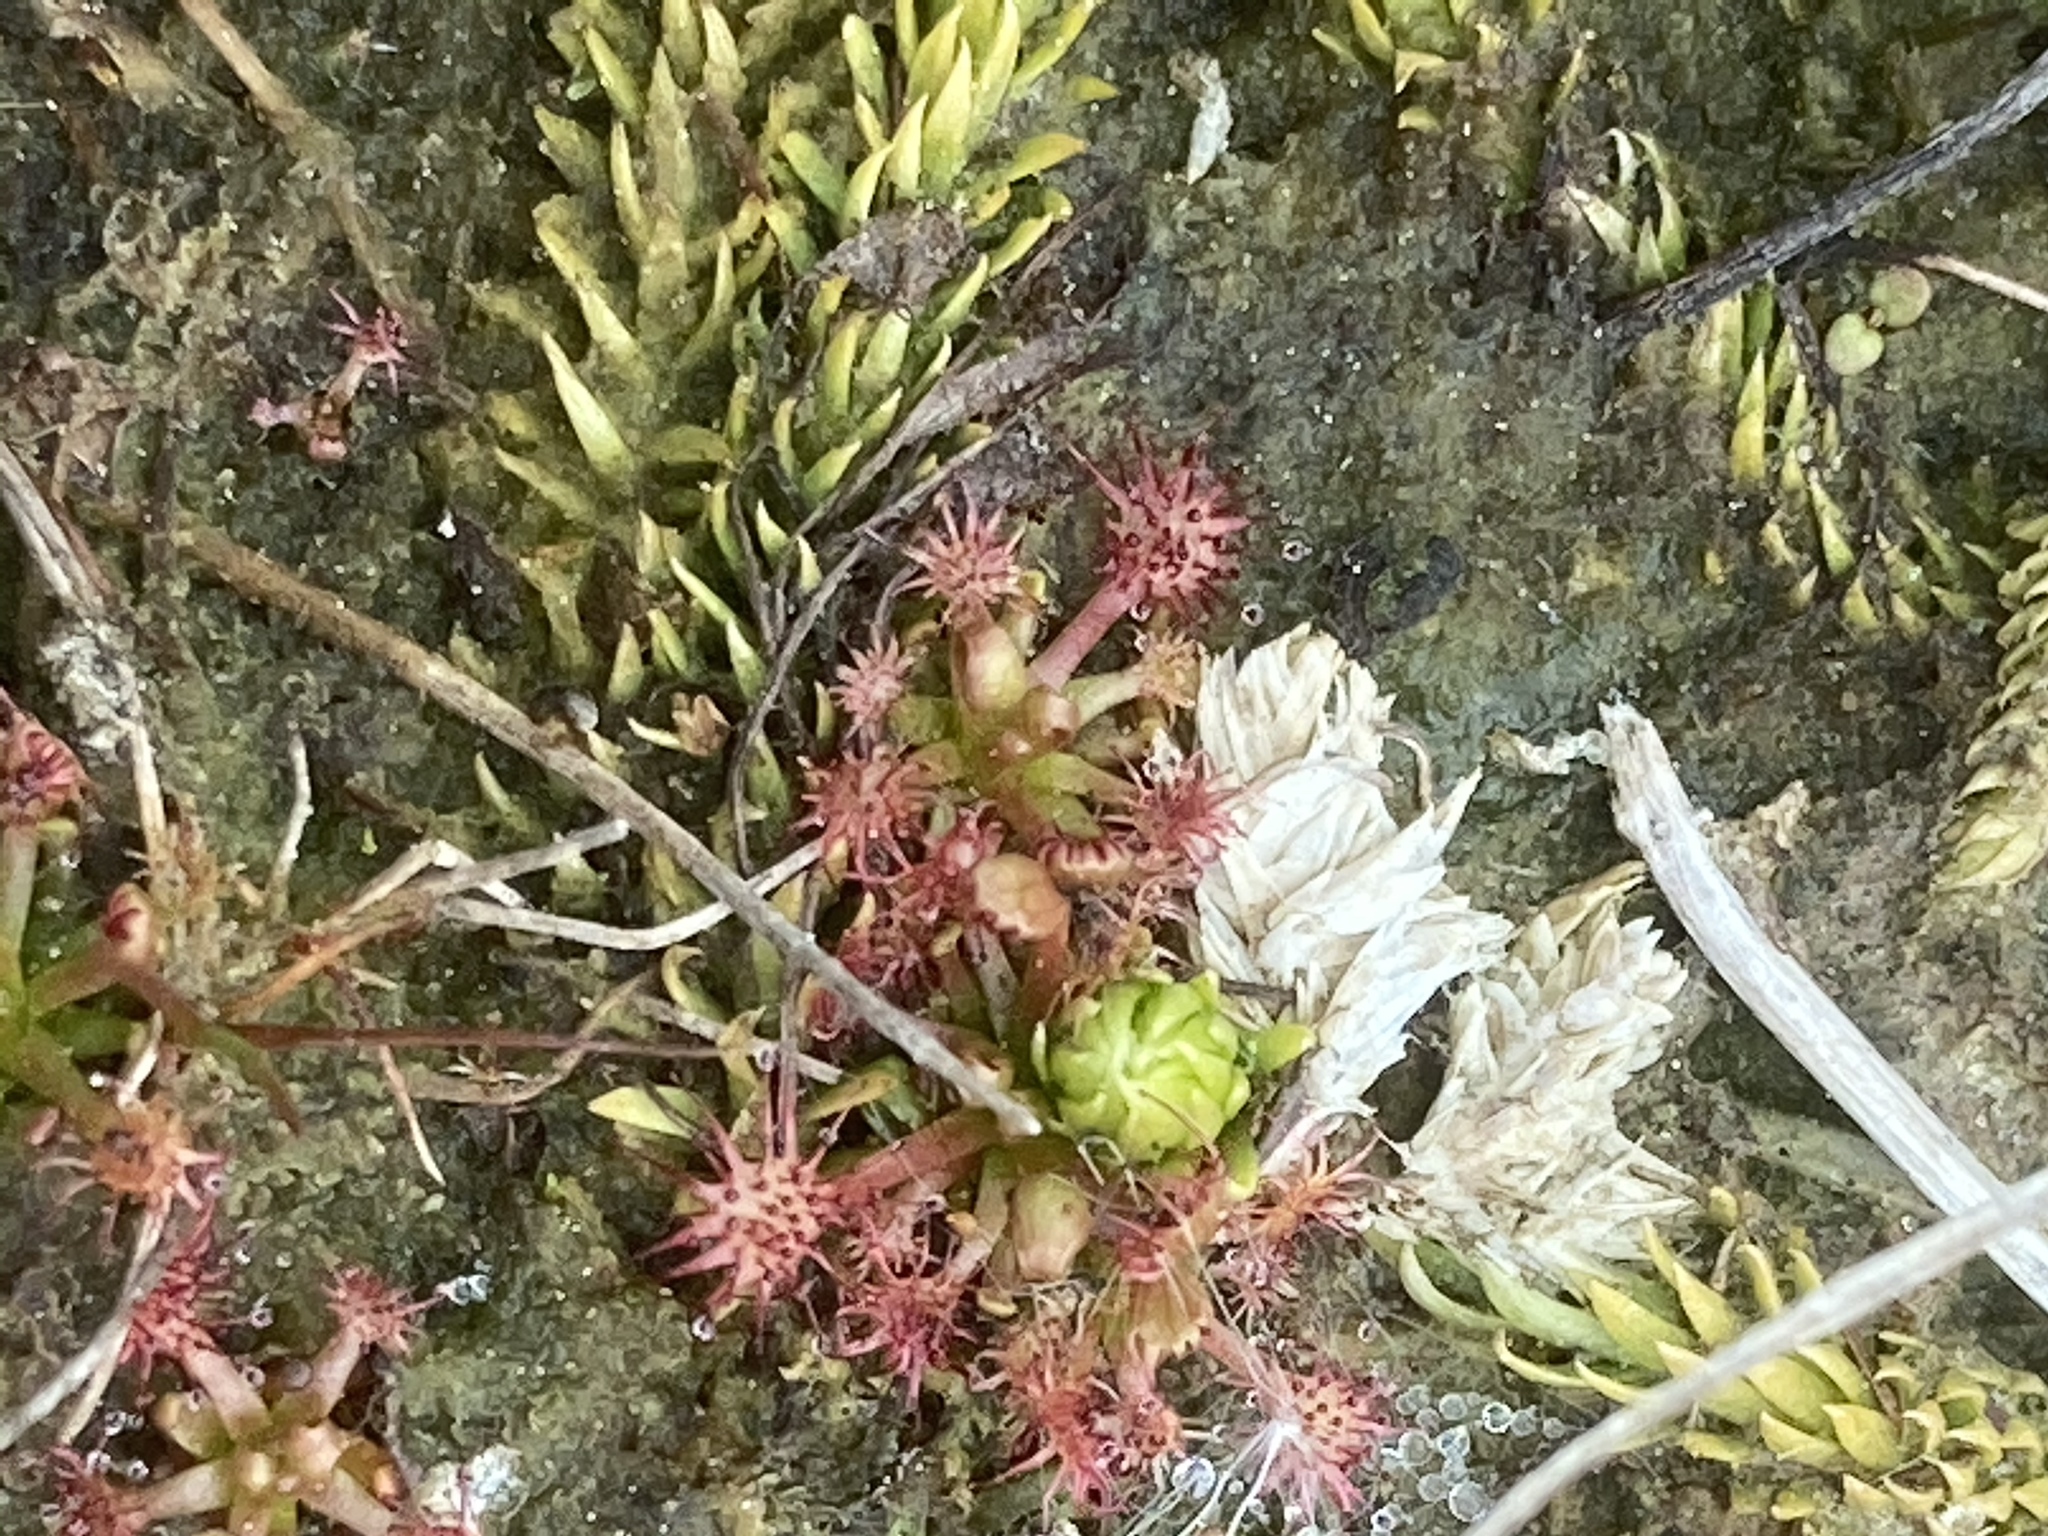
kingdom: Plantae
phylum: Tracheophyta
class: Magnoliopsida
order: Caryophyllales
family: Droseraceae
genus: Drosera
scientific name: Drosera intermedia
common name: Oblong-leaved sundew
